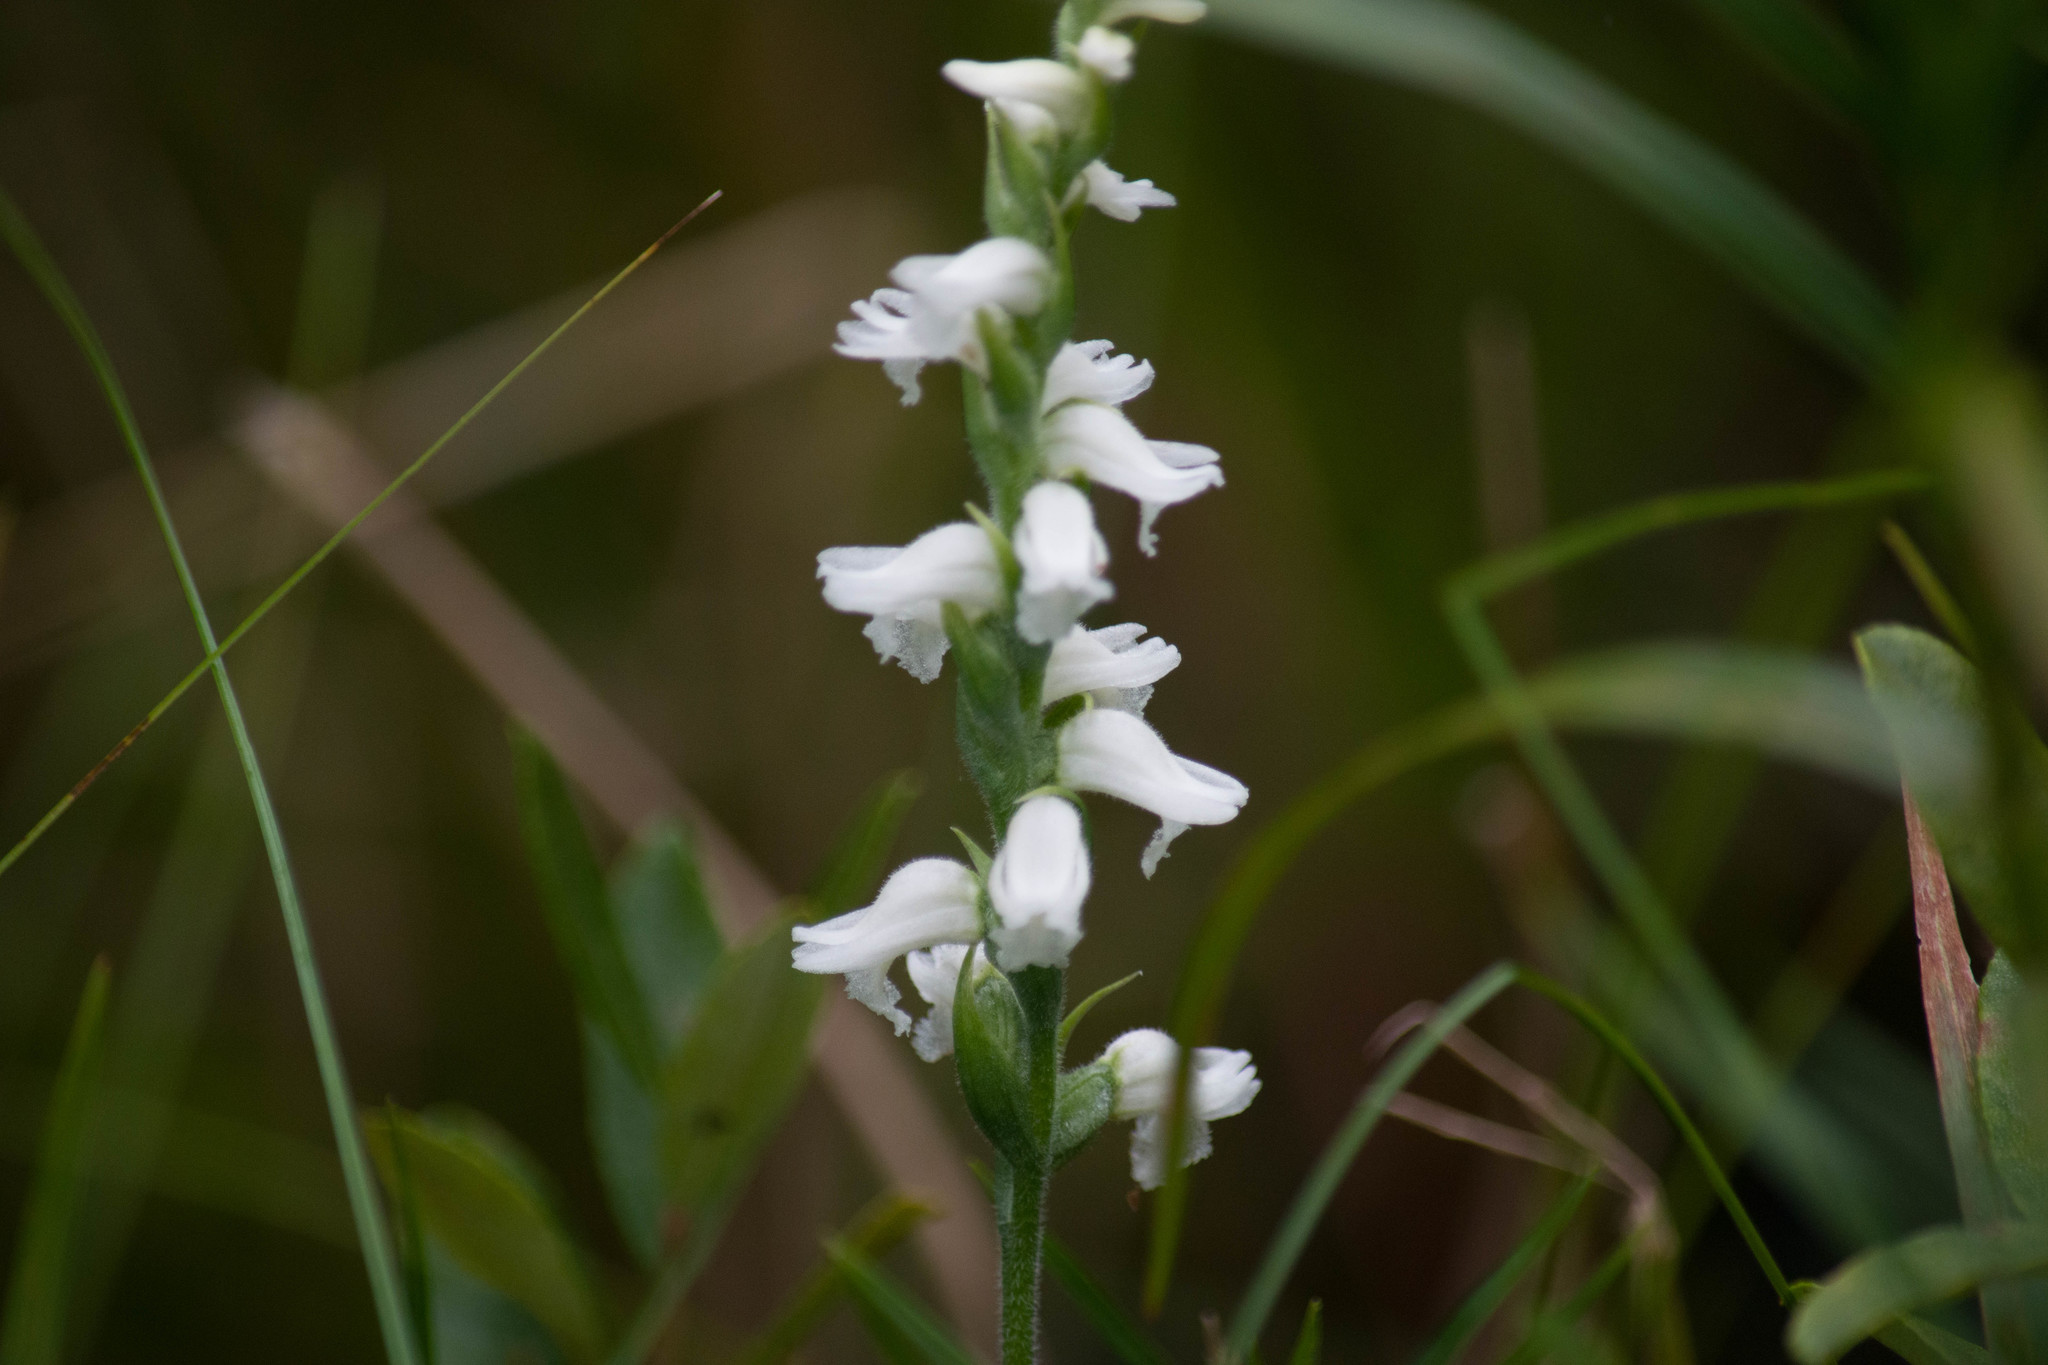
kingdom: Plantae
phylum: Tracheophyta
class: Liliopsida
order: Asparagales
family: Orchidaceae
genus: Spiranthes
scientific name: Spiranthes cernua
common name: Dropping ladies'-tresses
